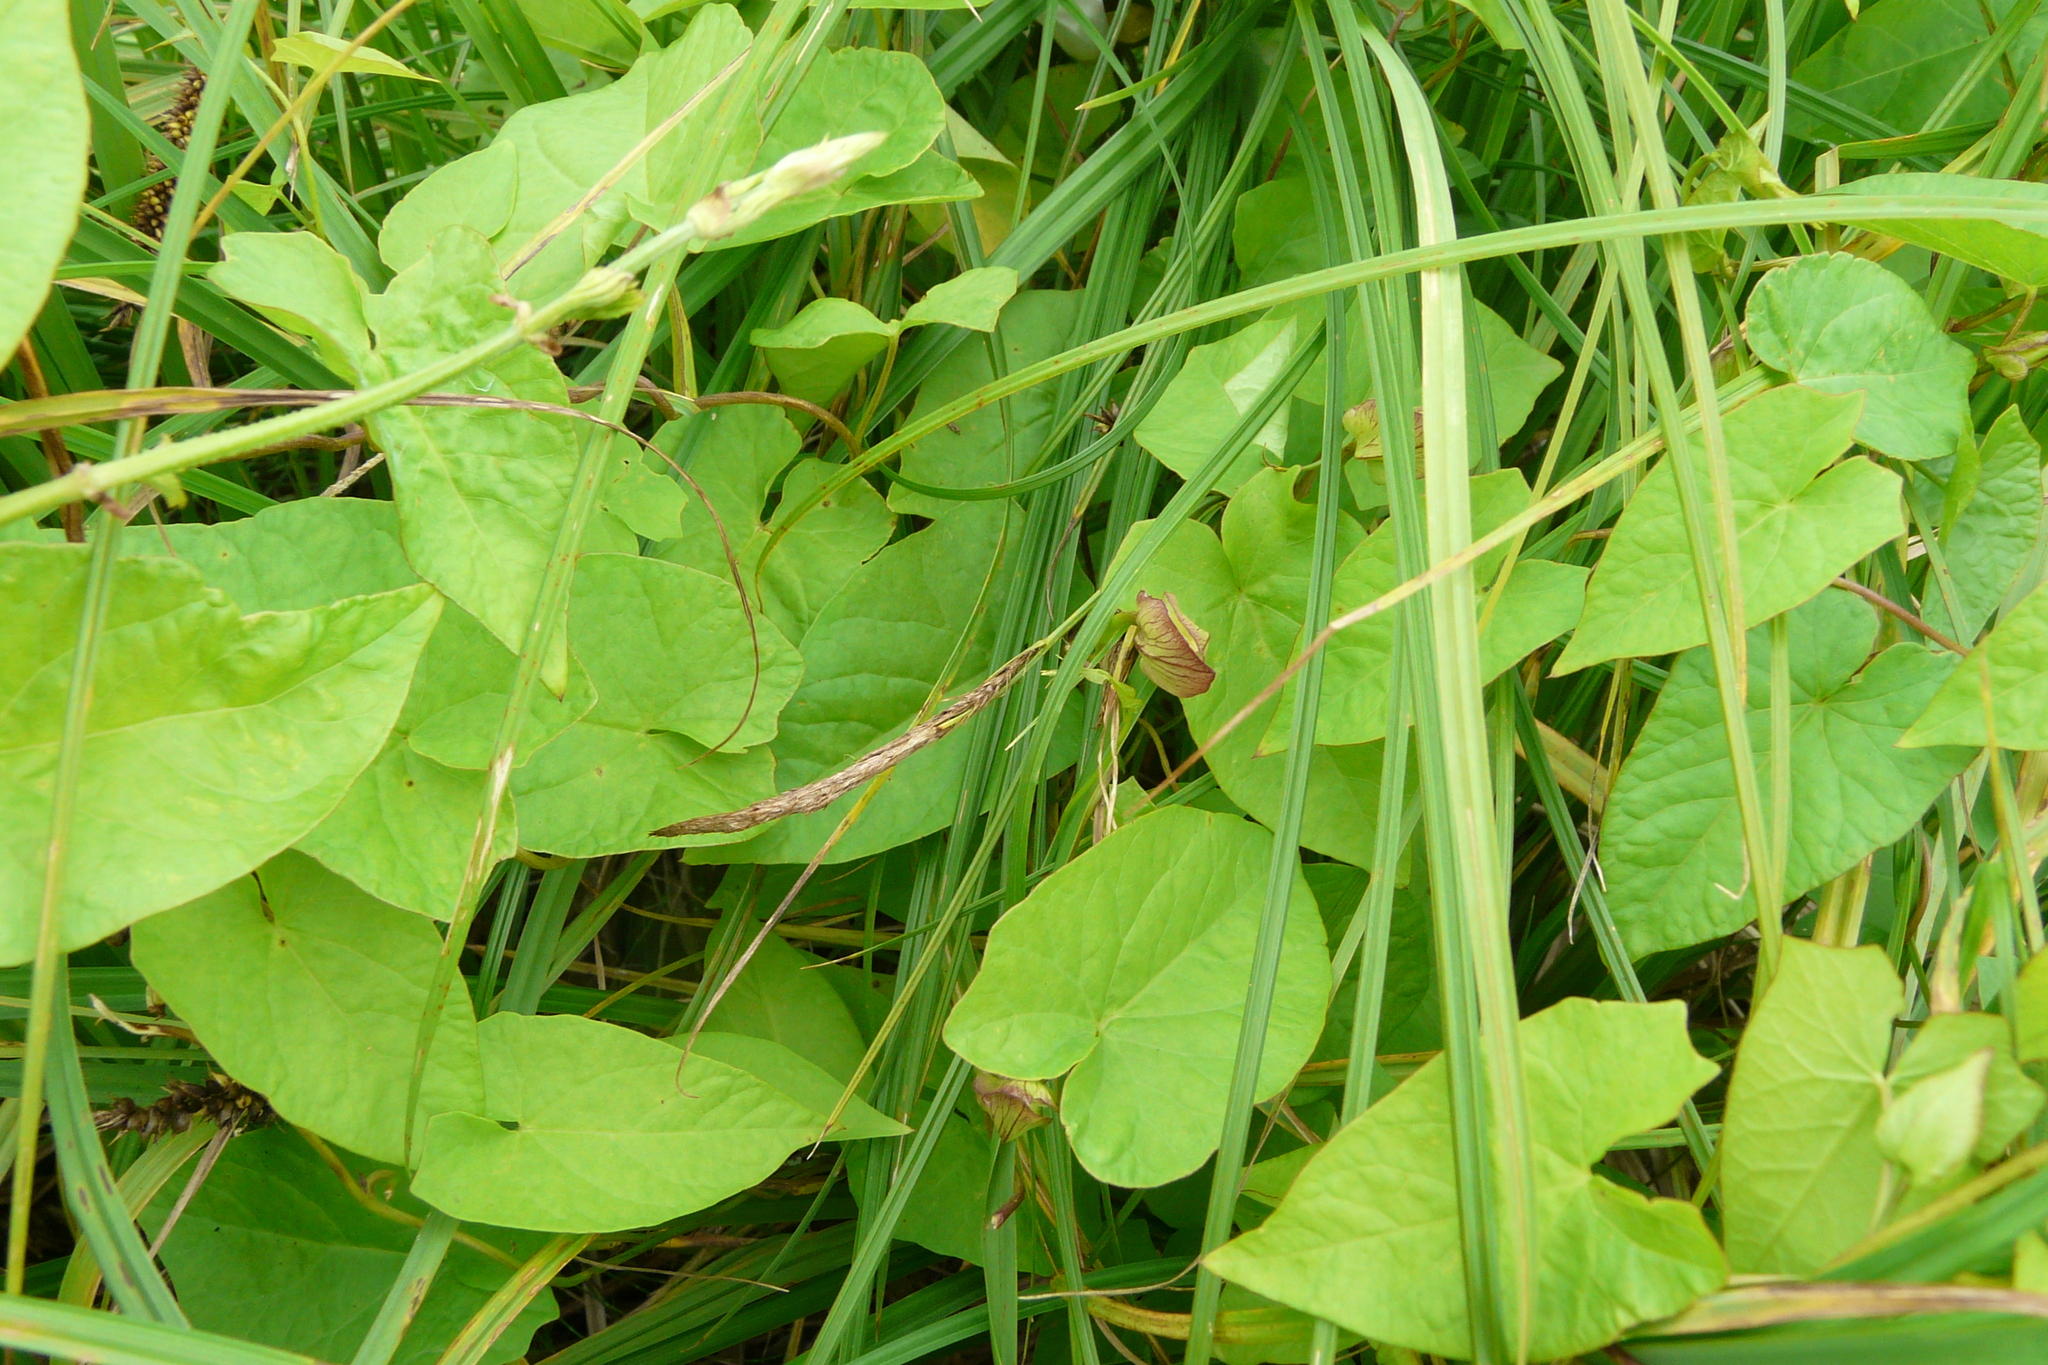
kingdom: Plantae
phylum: Tracheophyta
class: Magnoliopsida
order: Solanales
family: Convolvulaceae
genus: Calystegia
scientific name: Calystegia sepium
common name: Hedge bindweed
